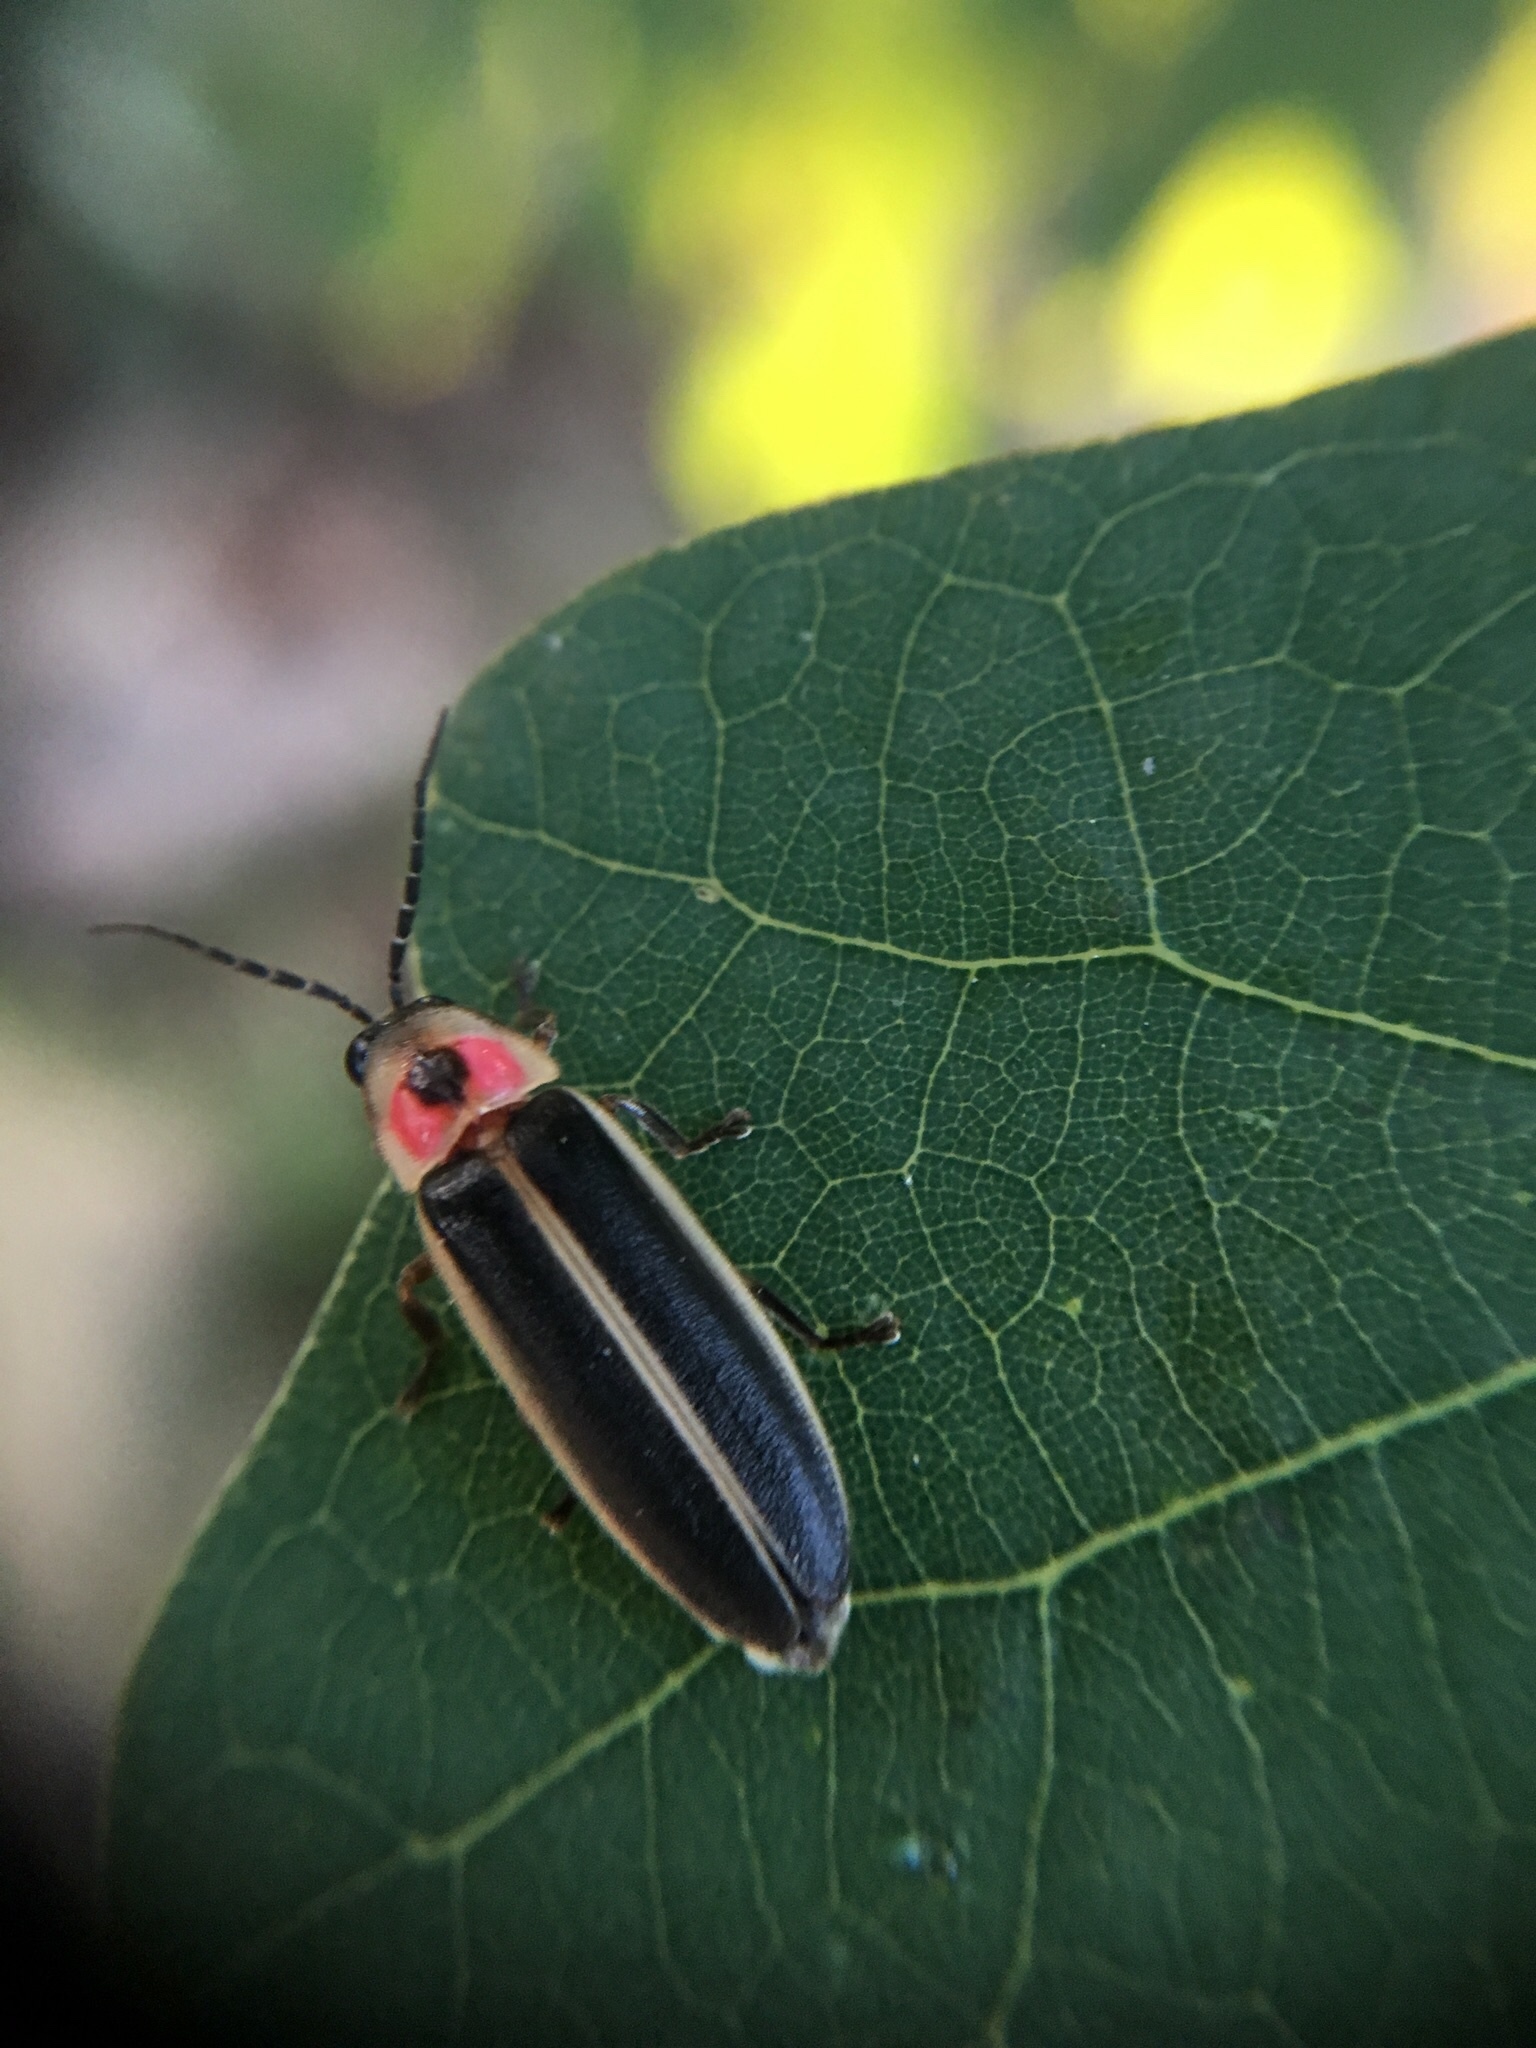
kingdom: Animalia
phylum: Arthropoda
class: Insecta
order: Coleoptera
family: Lampyridae
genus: Photinus
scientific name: Photinus pyralis
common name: Big dipper firefly
